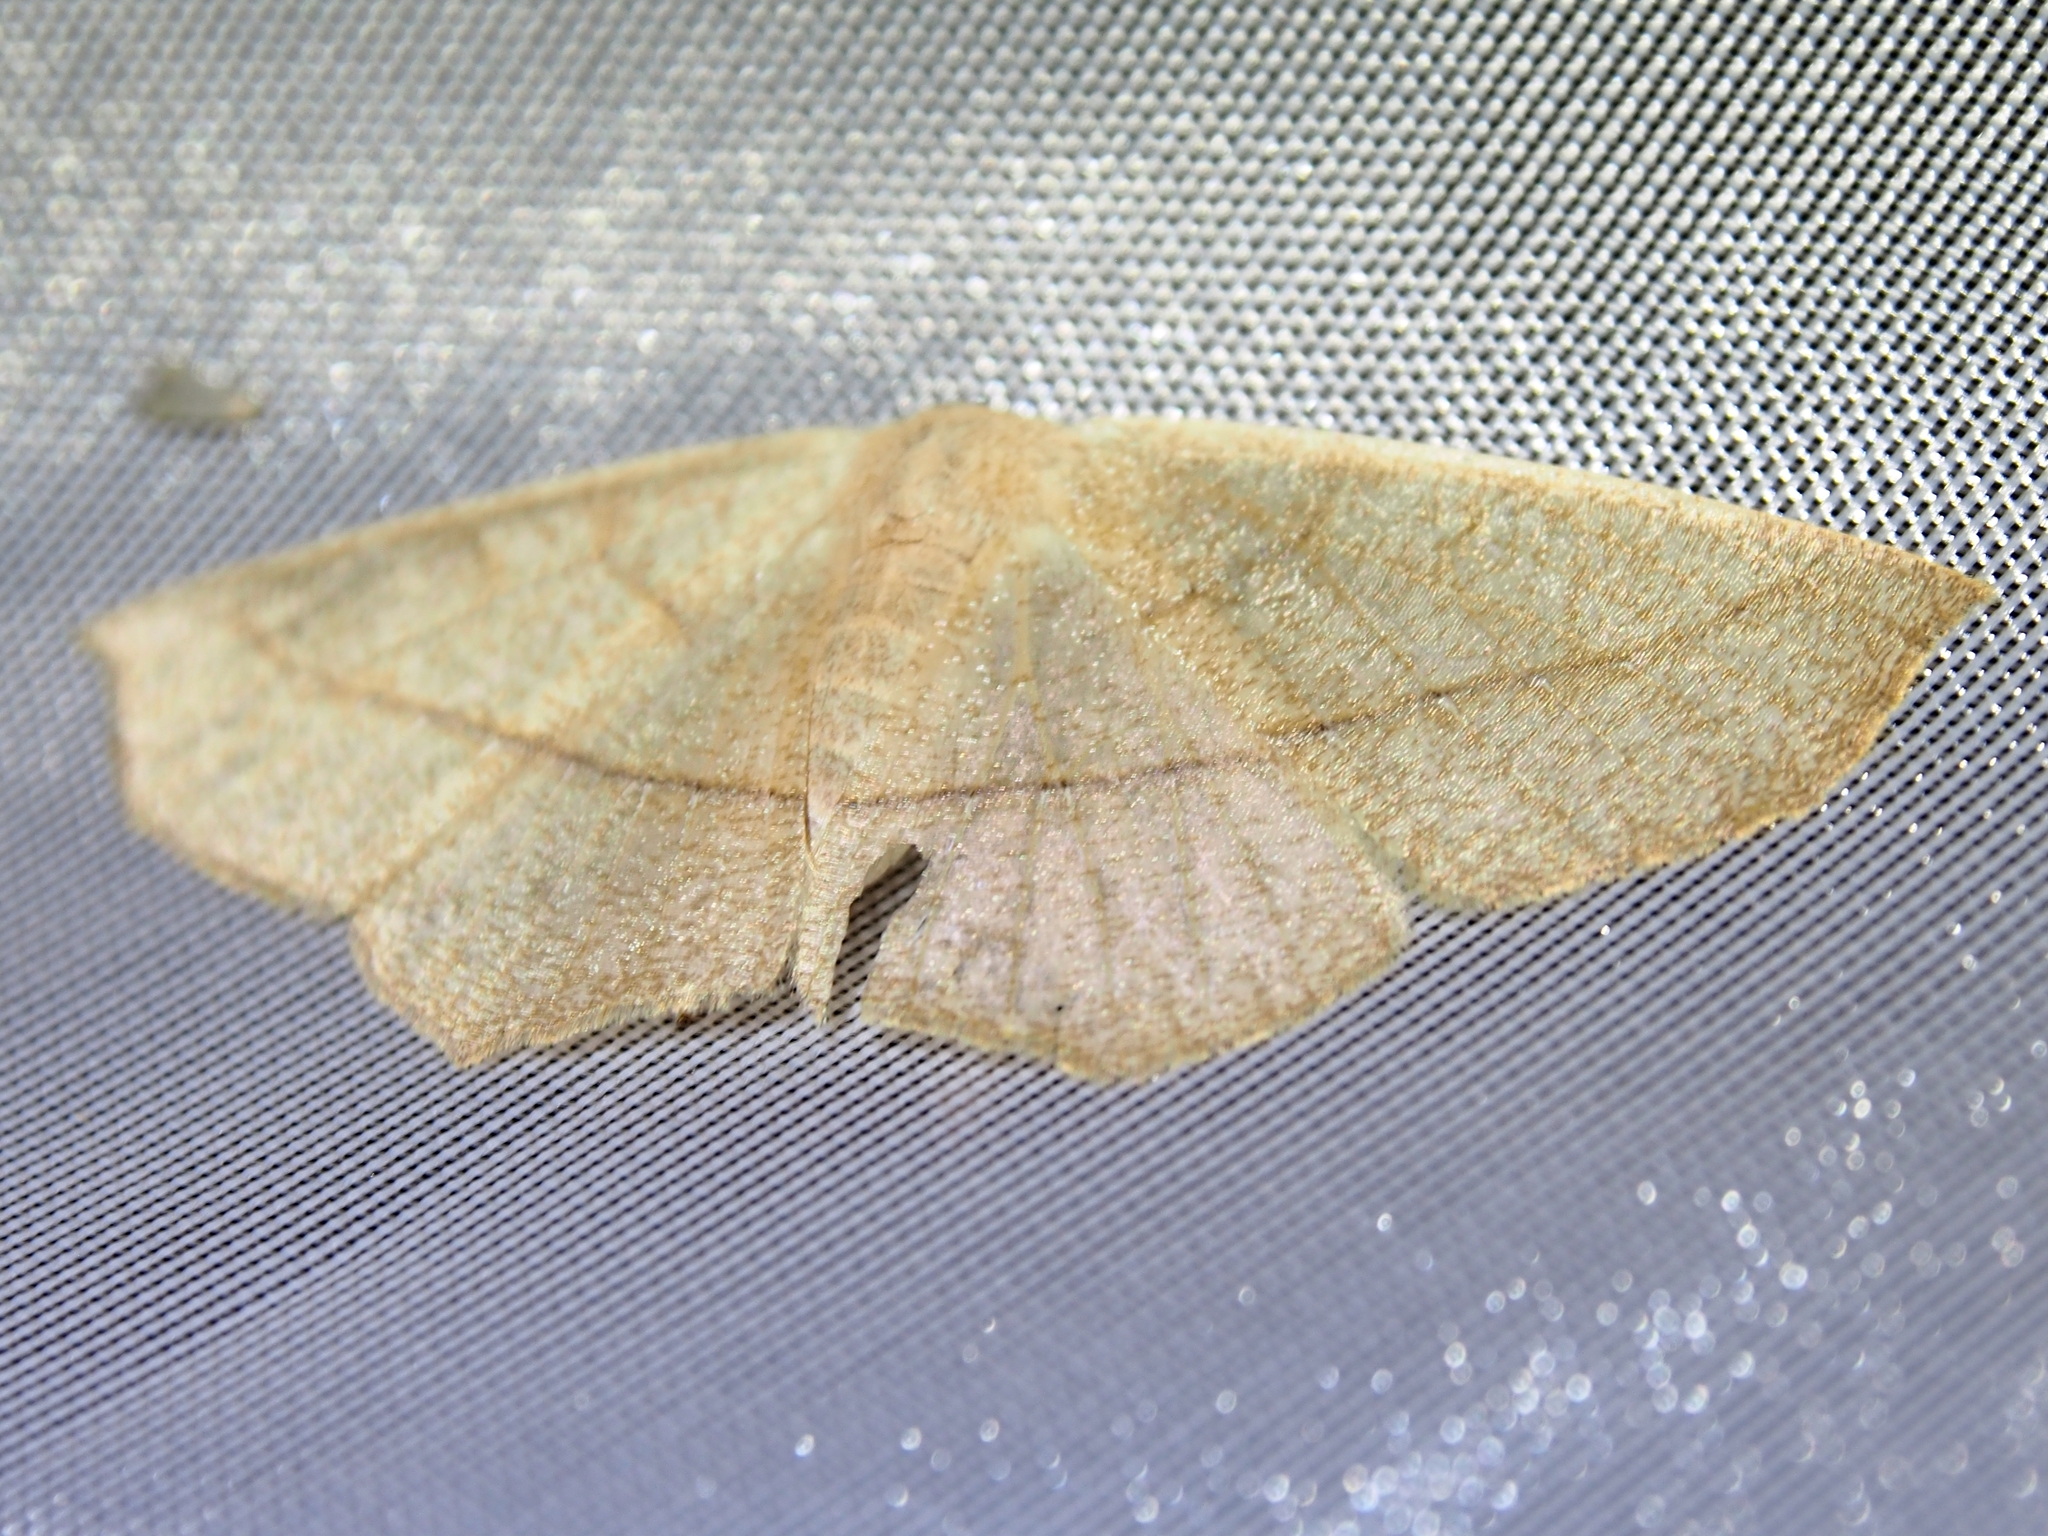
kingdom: Animalia
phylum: Arthropoda
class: Insecta
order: Lepidoptera
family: Geometridae
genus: Sabulodes
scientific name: Sabulodes arses
